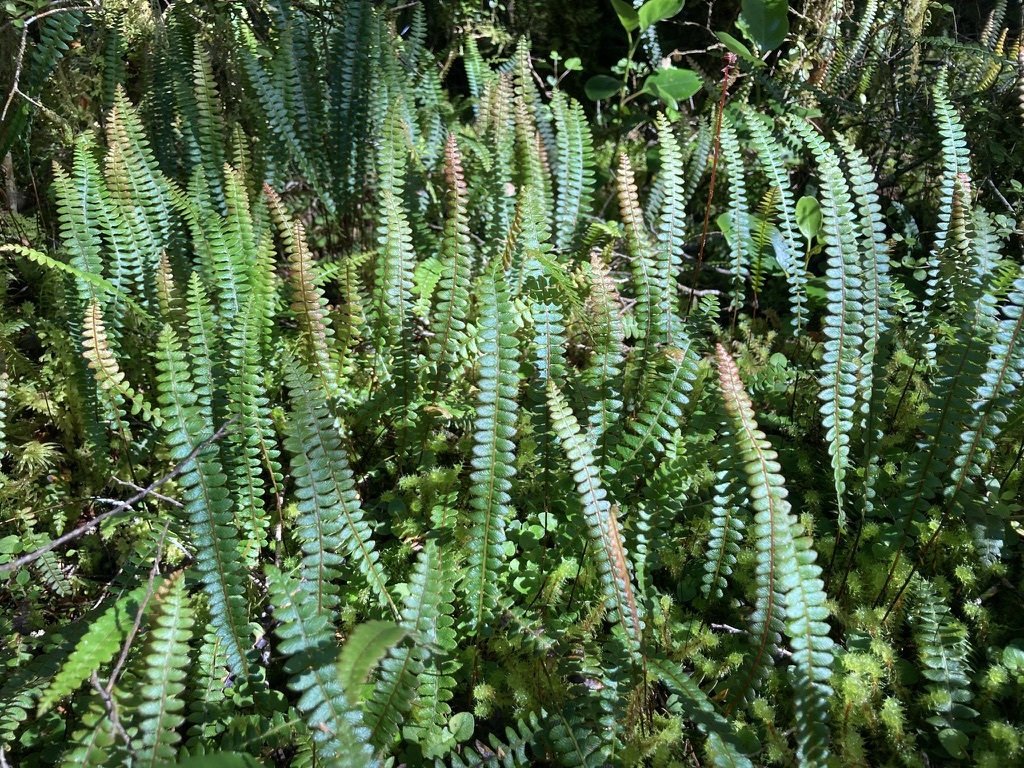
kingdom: Plantae
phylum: Tracheophyta
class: Polypodiopsida
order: Polypodiales
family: Blechnaceae
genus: Austroblechnum
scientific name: Austroblechnum penna-marina
